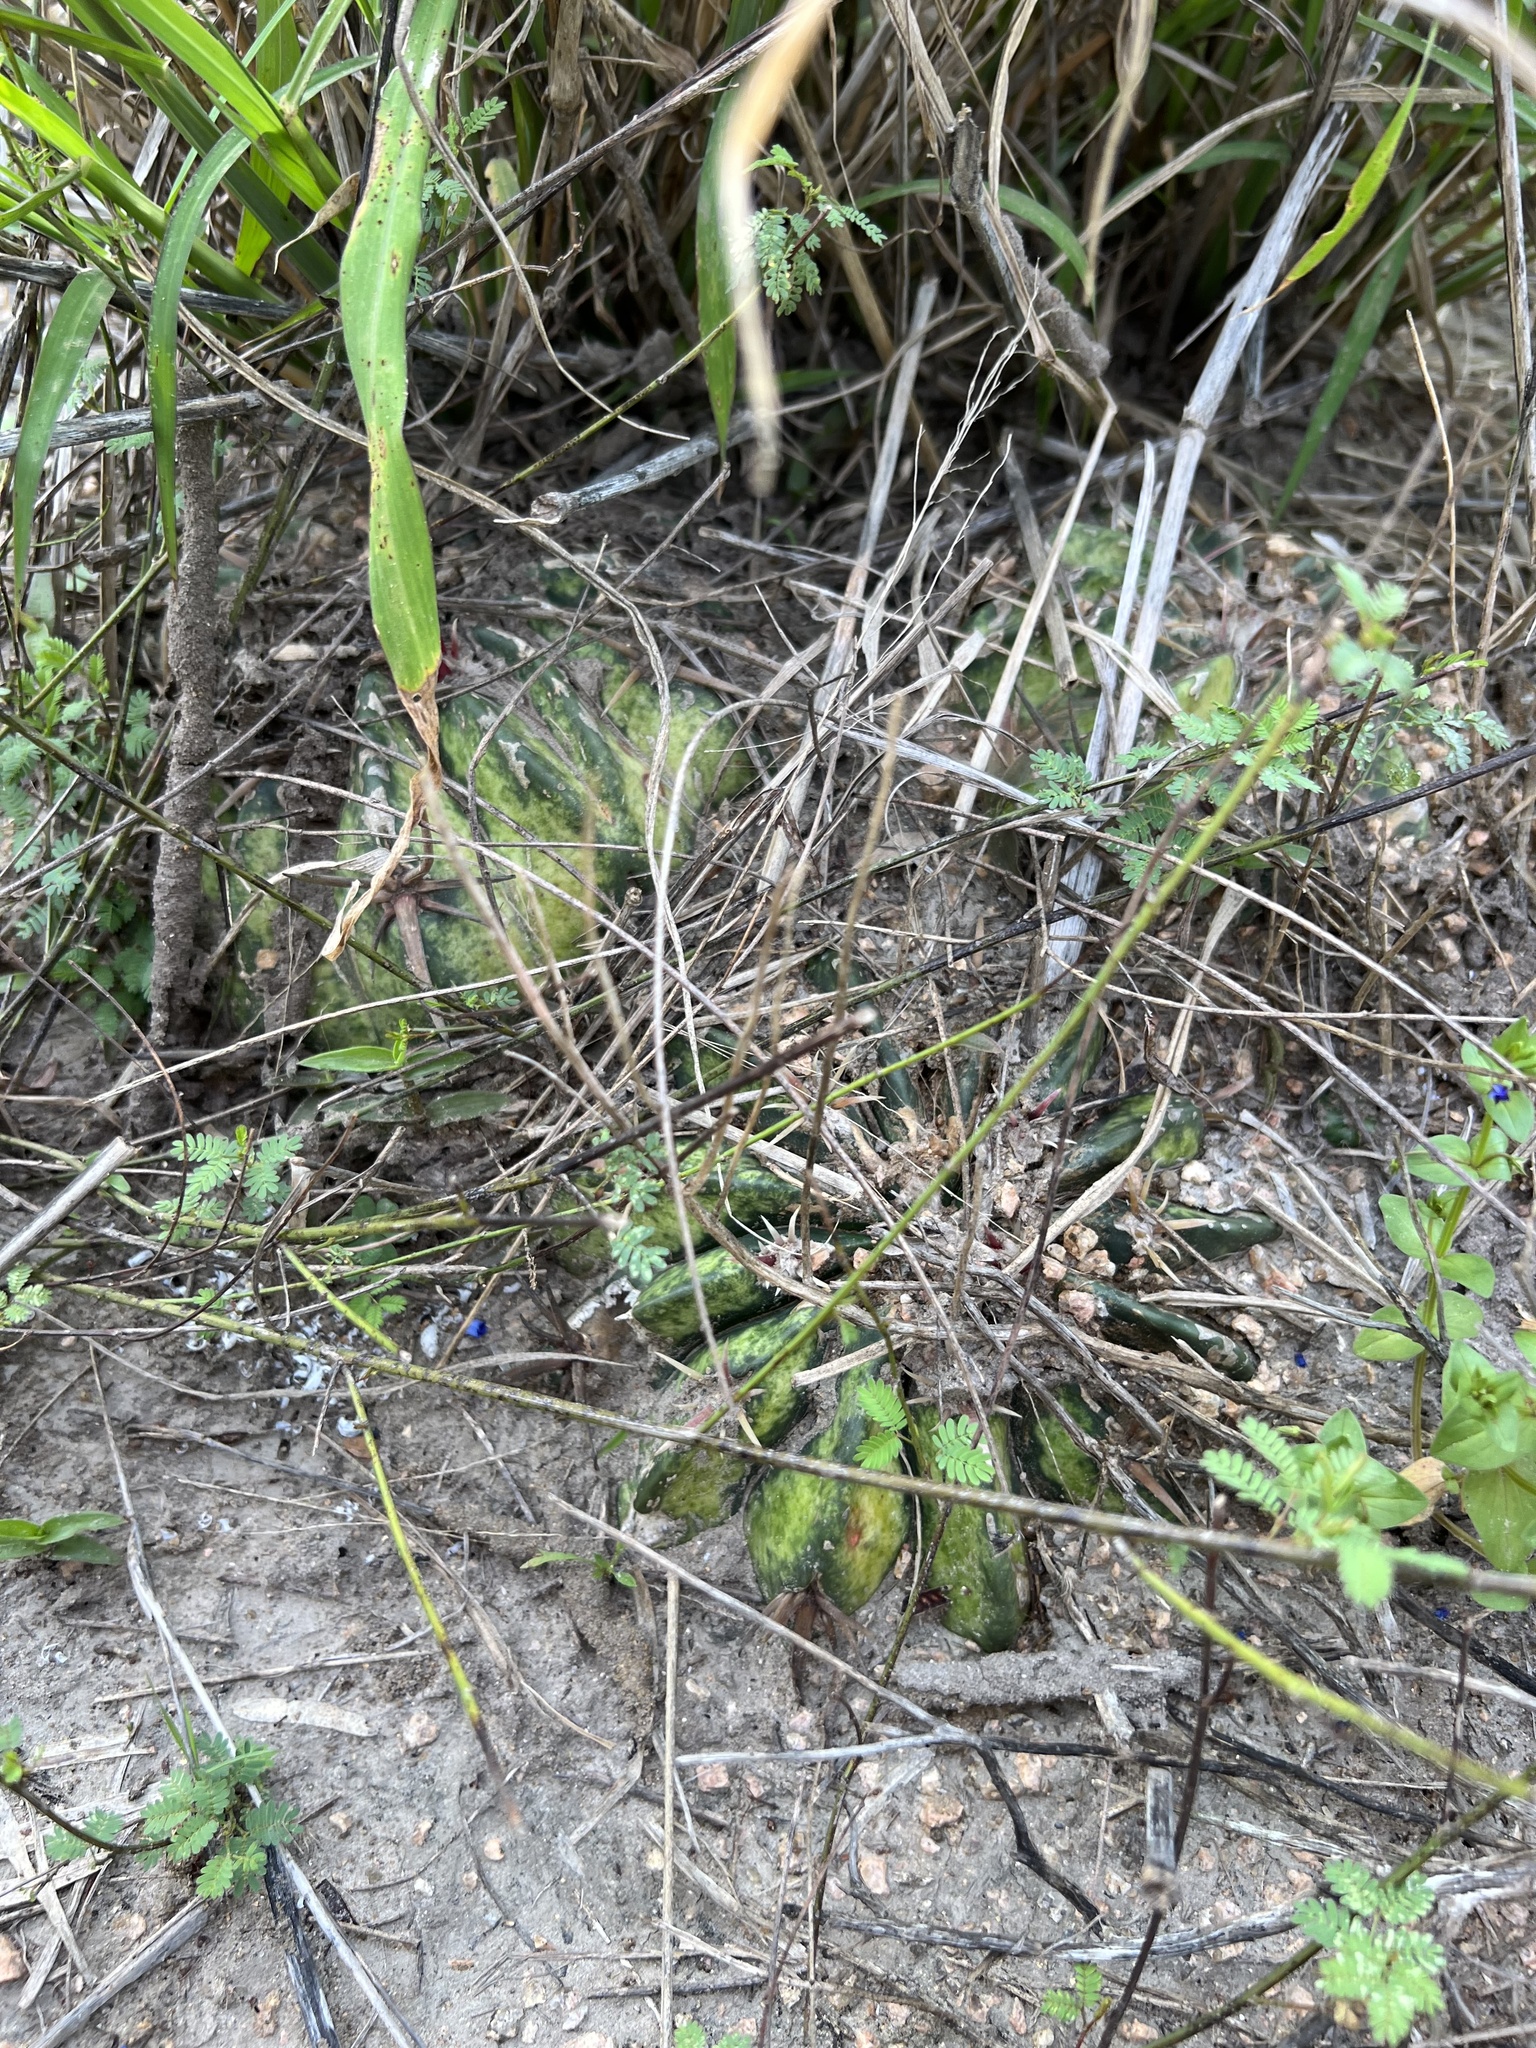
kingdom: Plantae
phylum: Tracheophyta
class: Magnoliopsida
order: Caryophyllales
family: Cactaceae
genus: Echinocactus
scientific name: Echinocactus texensis
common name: Devil's pincushion
